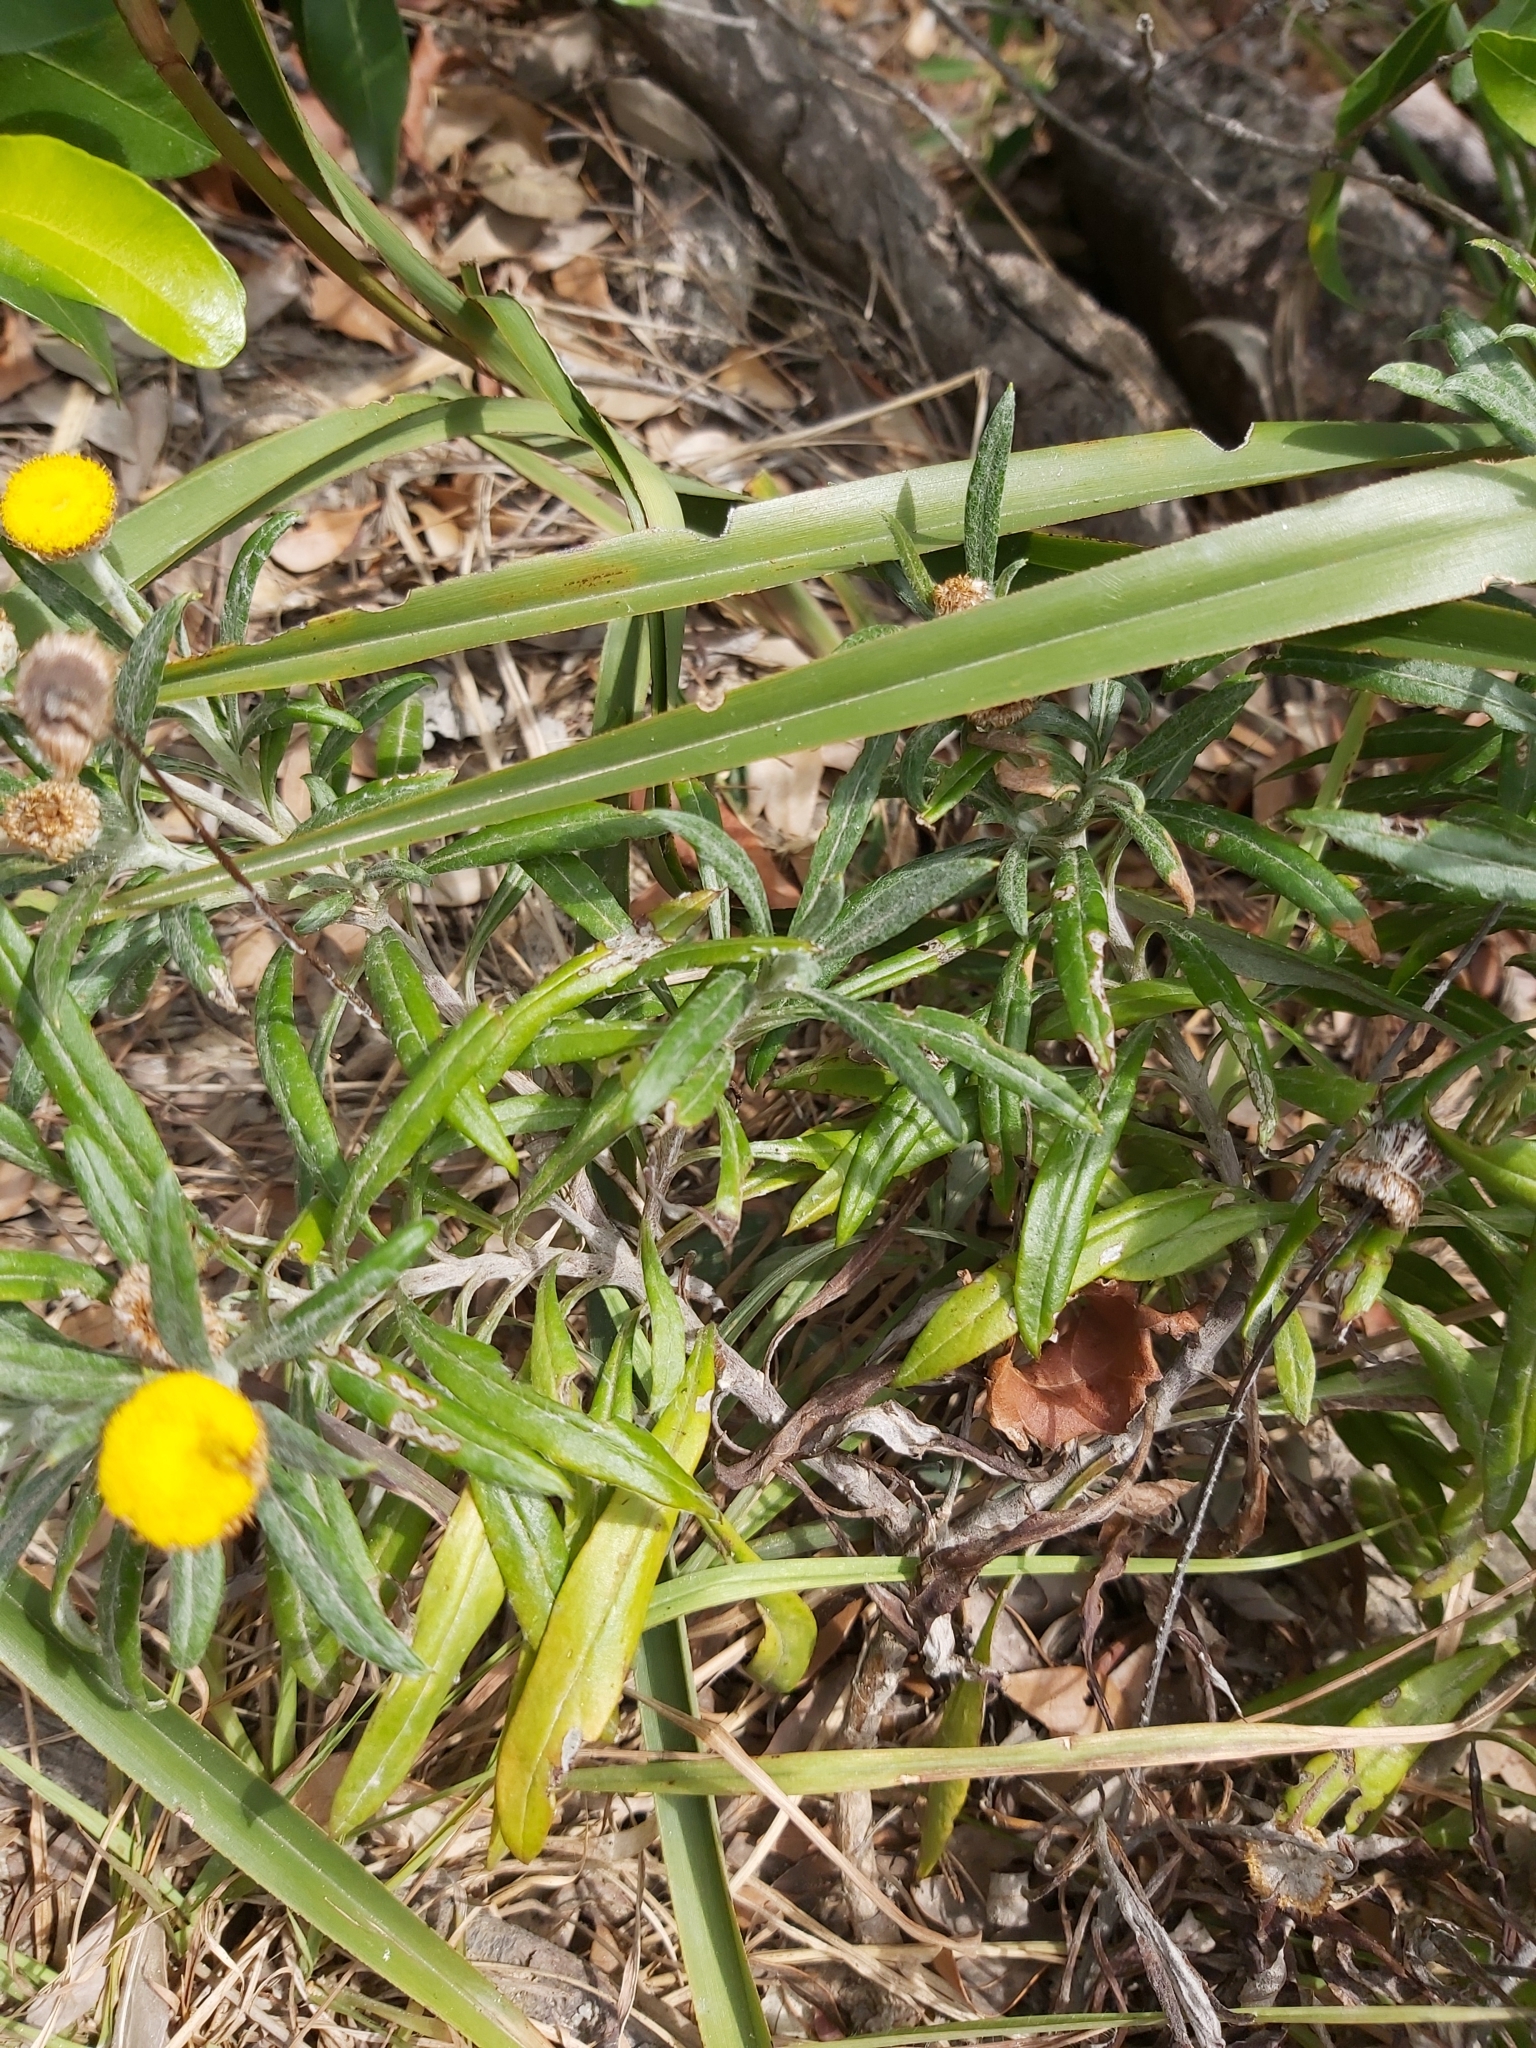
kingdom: Plantae
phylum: Tracheophyta
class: Magnoliopsida
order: Asterales
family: Asteraceae
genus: Coronidium
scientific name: Coronidium rupicola
